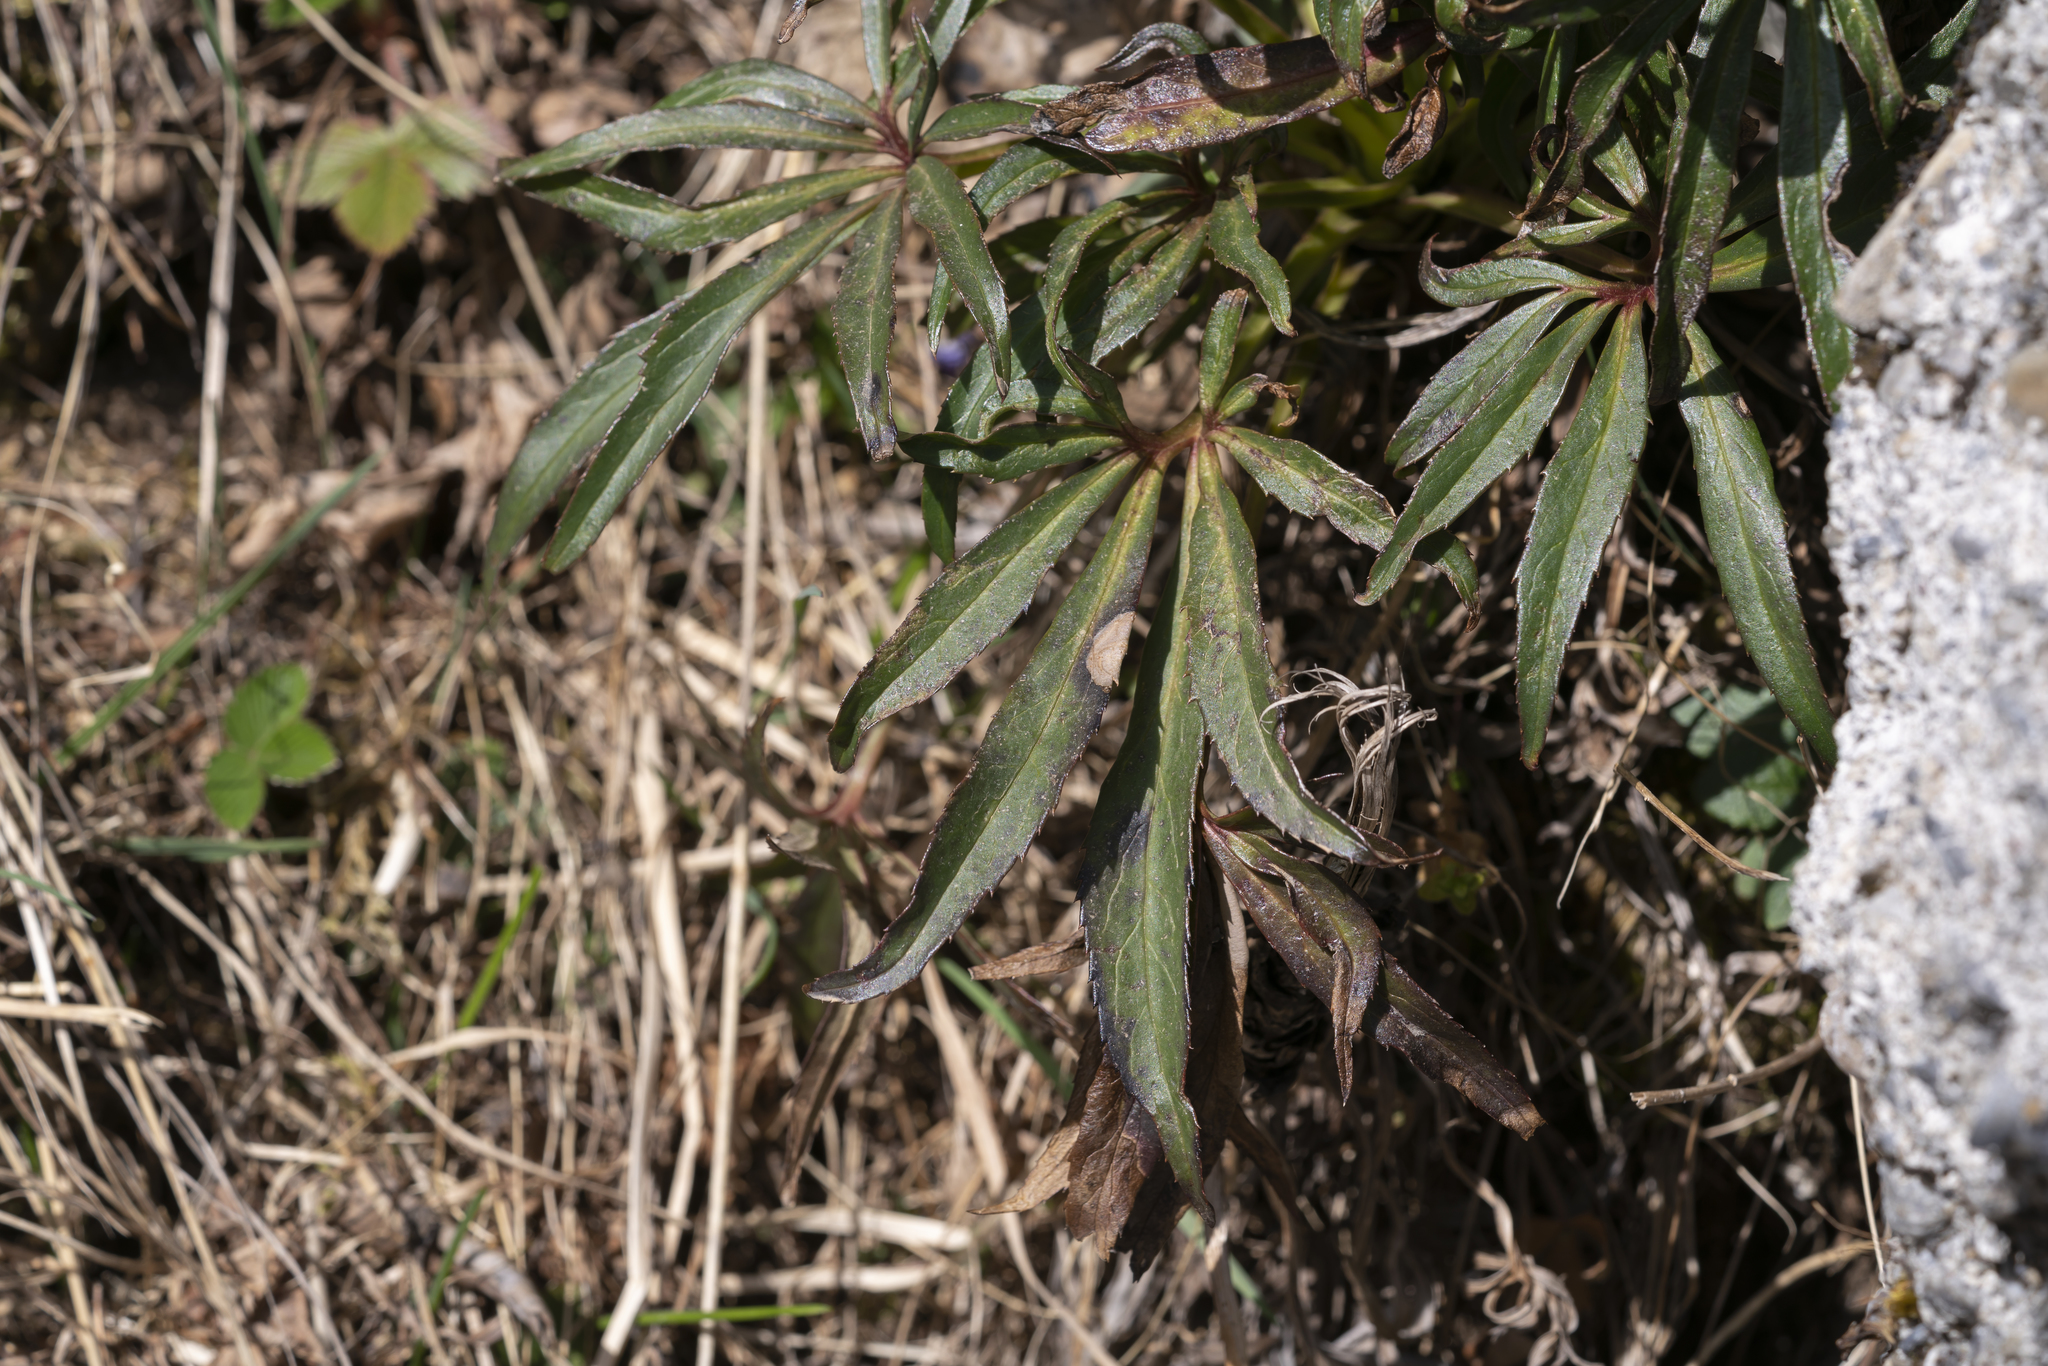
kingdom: Plantae
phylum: Tracheophyta
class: Magnoliopsida
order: Ranunculales
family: Ranunculaceae
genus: Helleborus
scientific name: Helleborus foetidus
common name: Stinking hellebore
